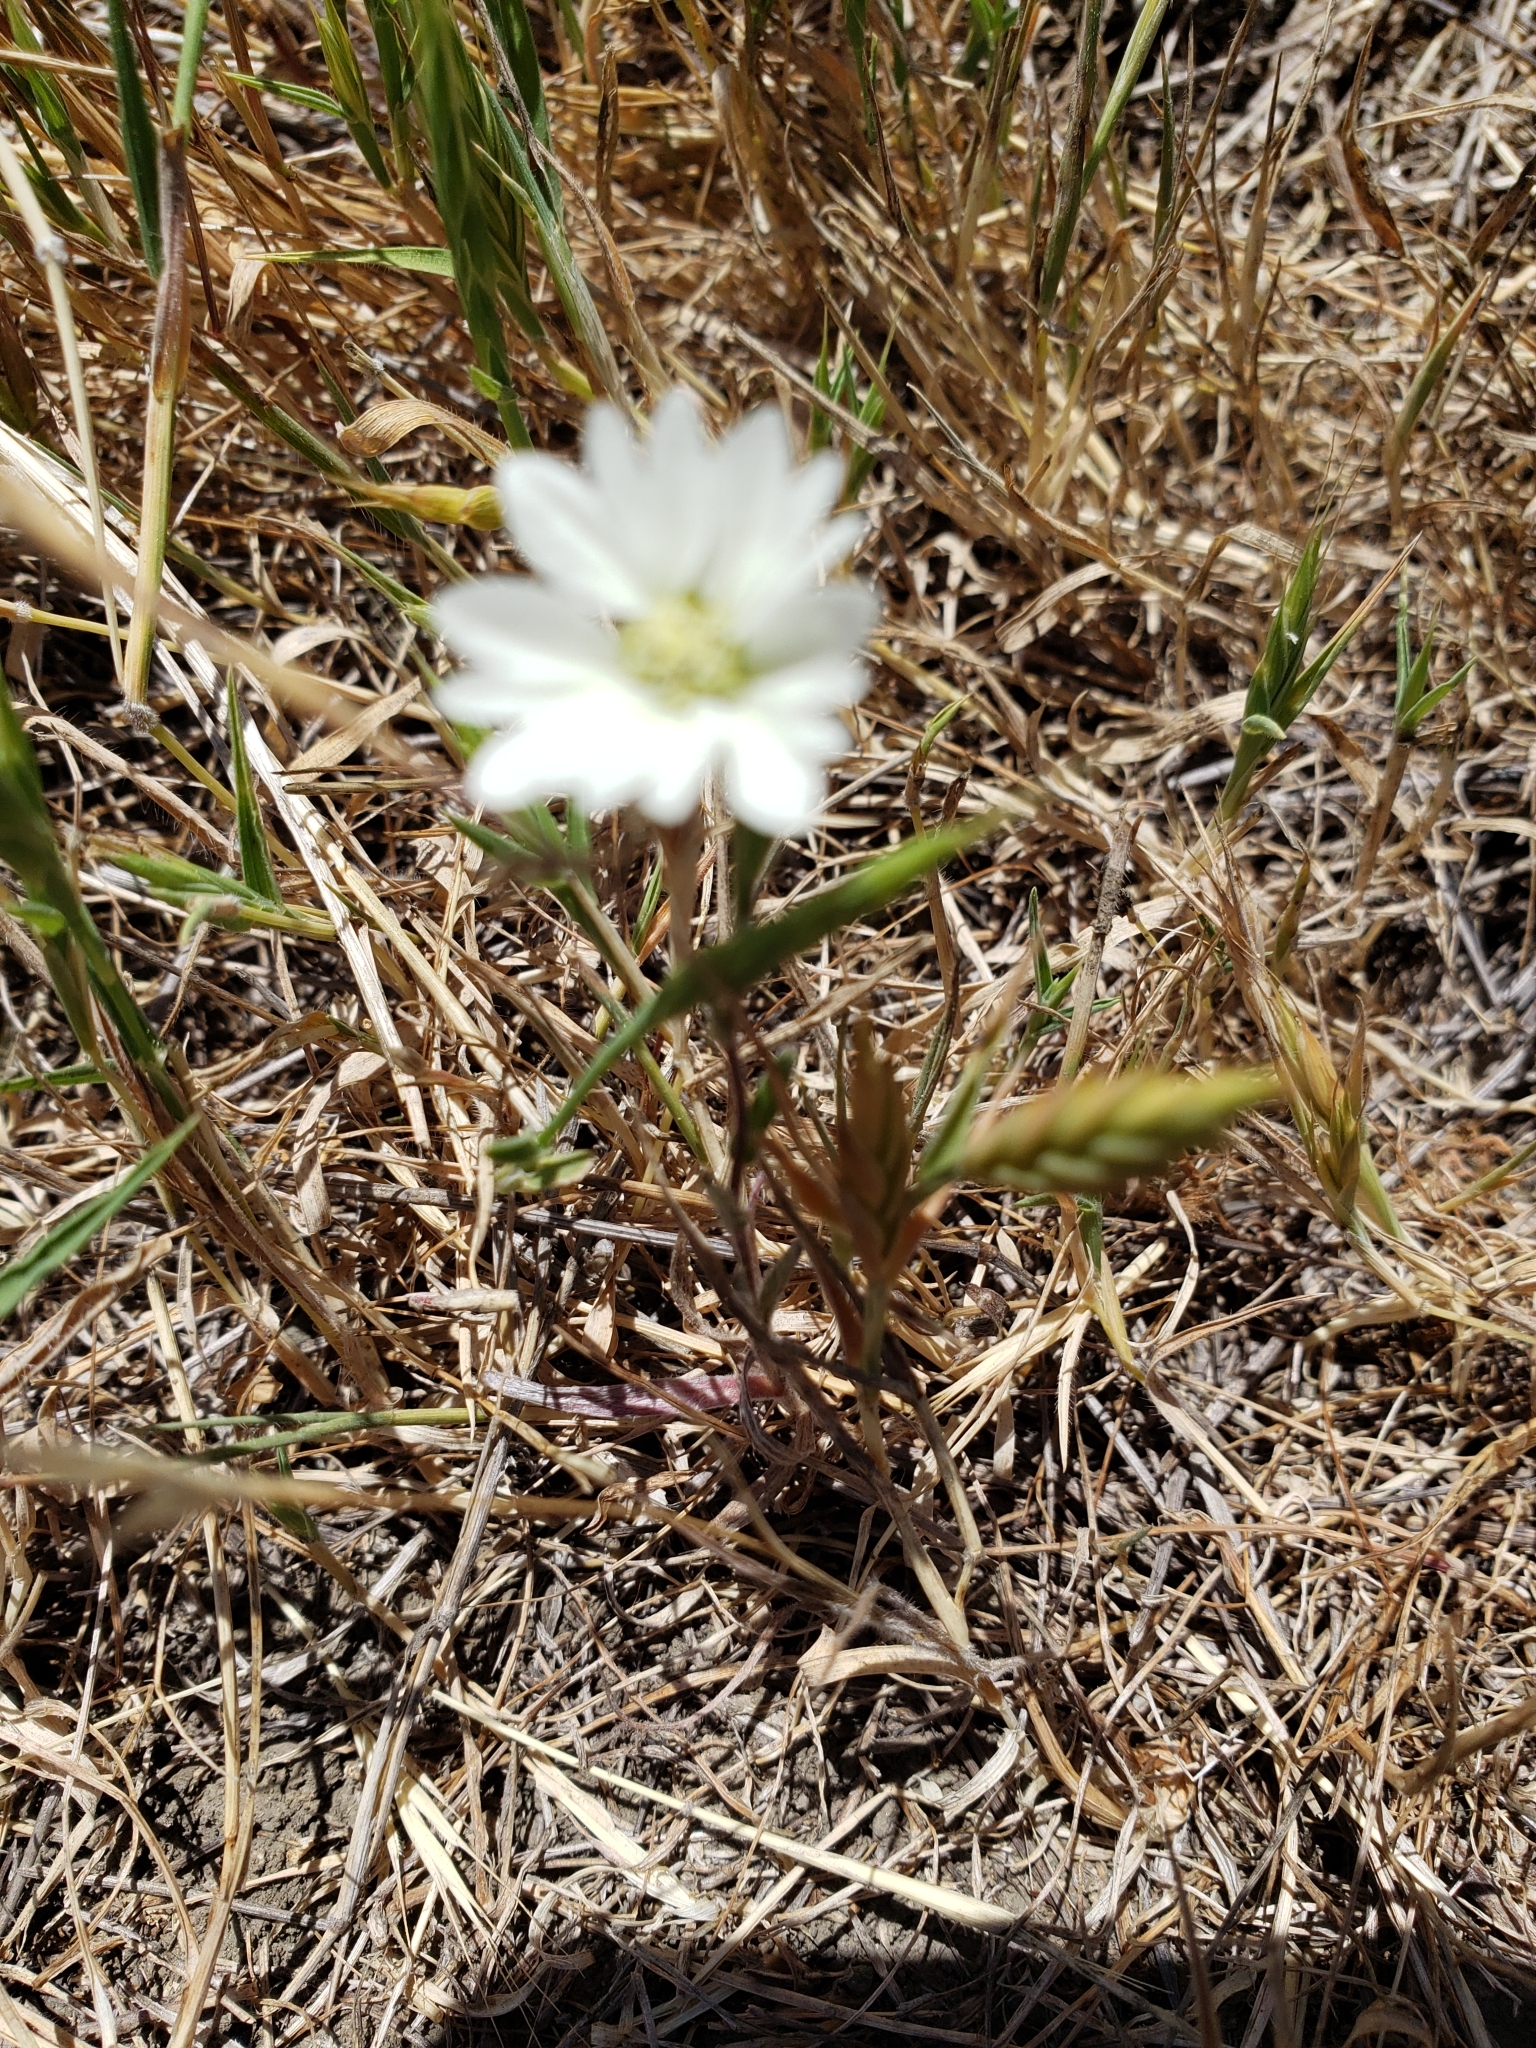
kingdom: Plantae
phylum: Tracheophyta
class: Magnoliopsida
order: Asterales
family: Asteraceae
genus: Hemizonia
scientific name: Hemizonia congesta
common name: Hayfield tarweed
